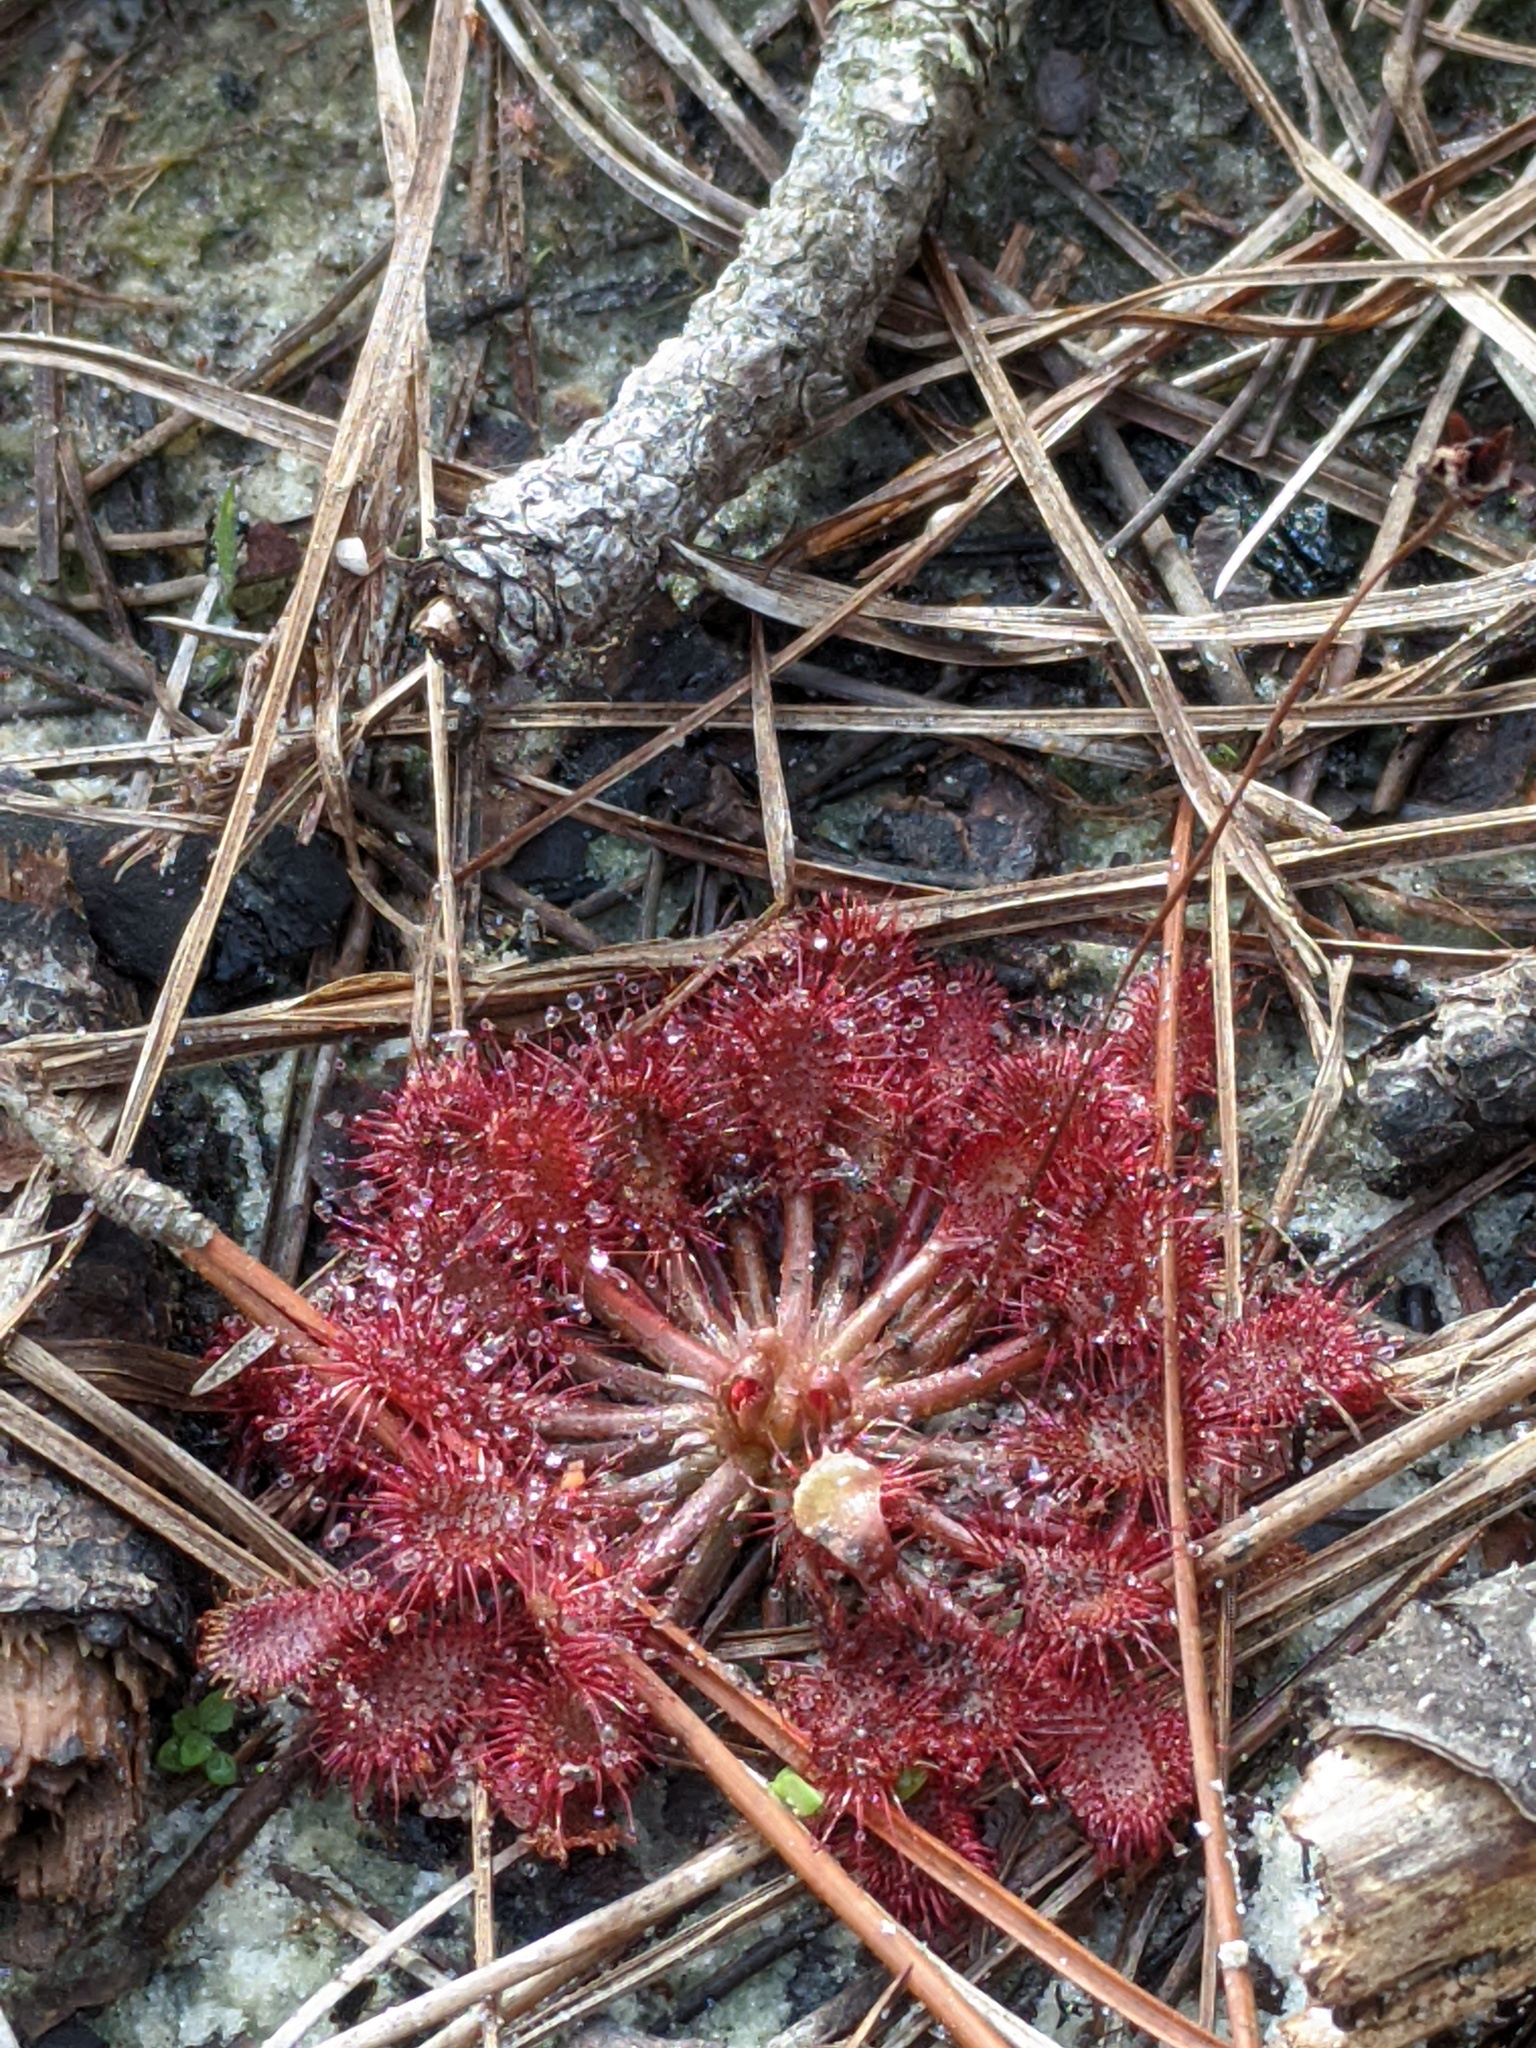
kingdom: Plantae
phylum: Tracheophyta
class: Magnoliopsida
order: Caryophyllales
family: Droseraceae
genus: Drosera
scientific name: Drosera capillaris
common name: Pink sundew
